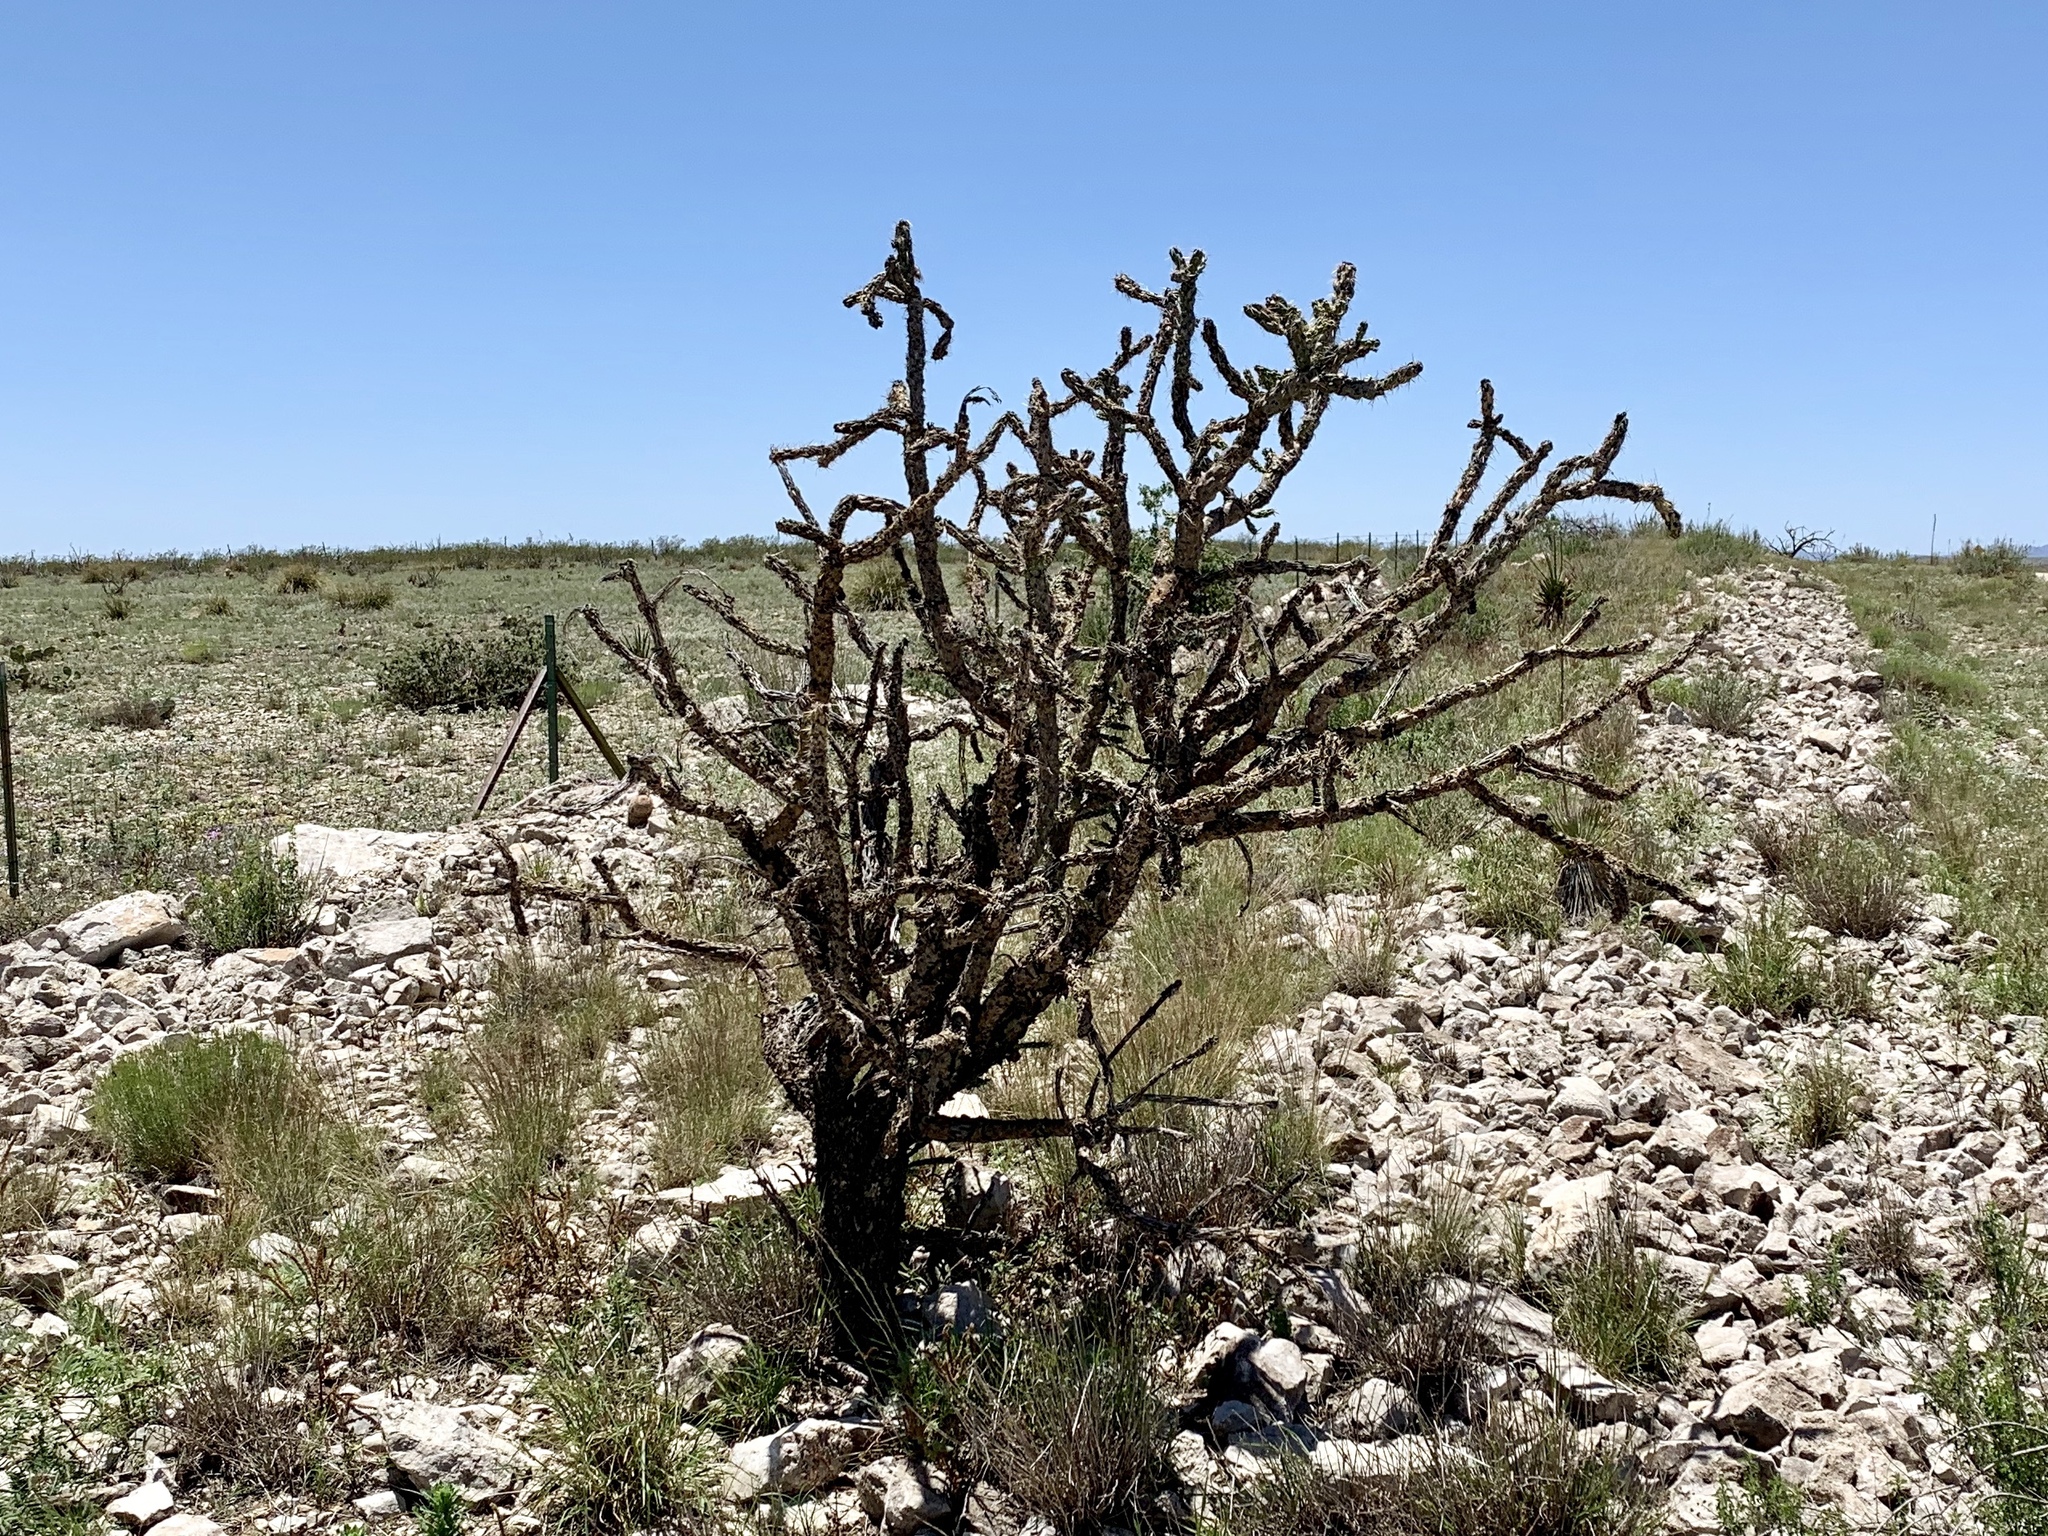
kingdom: Plantae
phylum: Tracheophyta
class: Magnoliopsida
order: Caryophyllales
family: Cactaceae
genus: Cylindropuntia
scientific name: Cylindropuntia imbricata
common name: Candelabrum cactus
